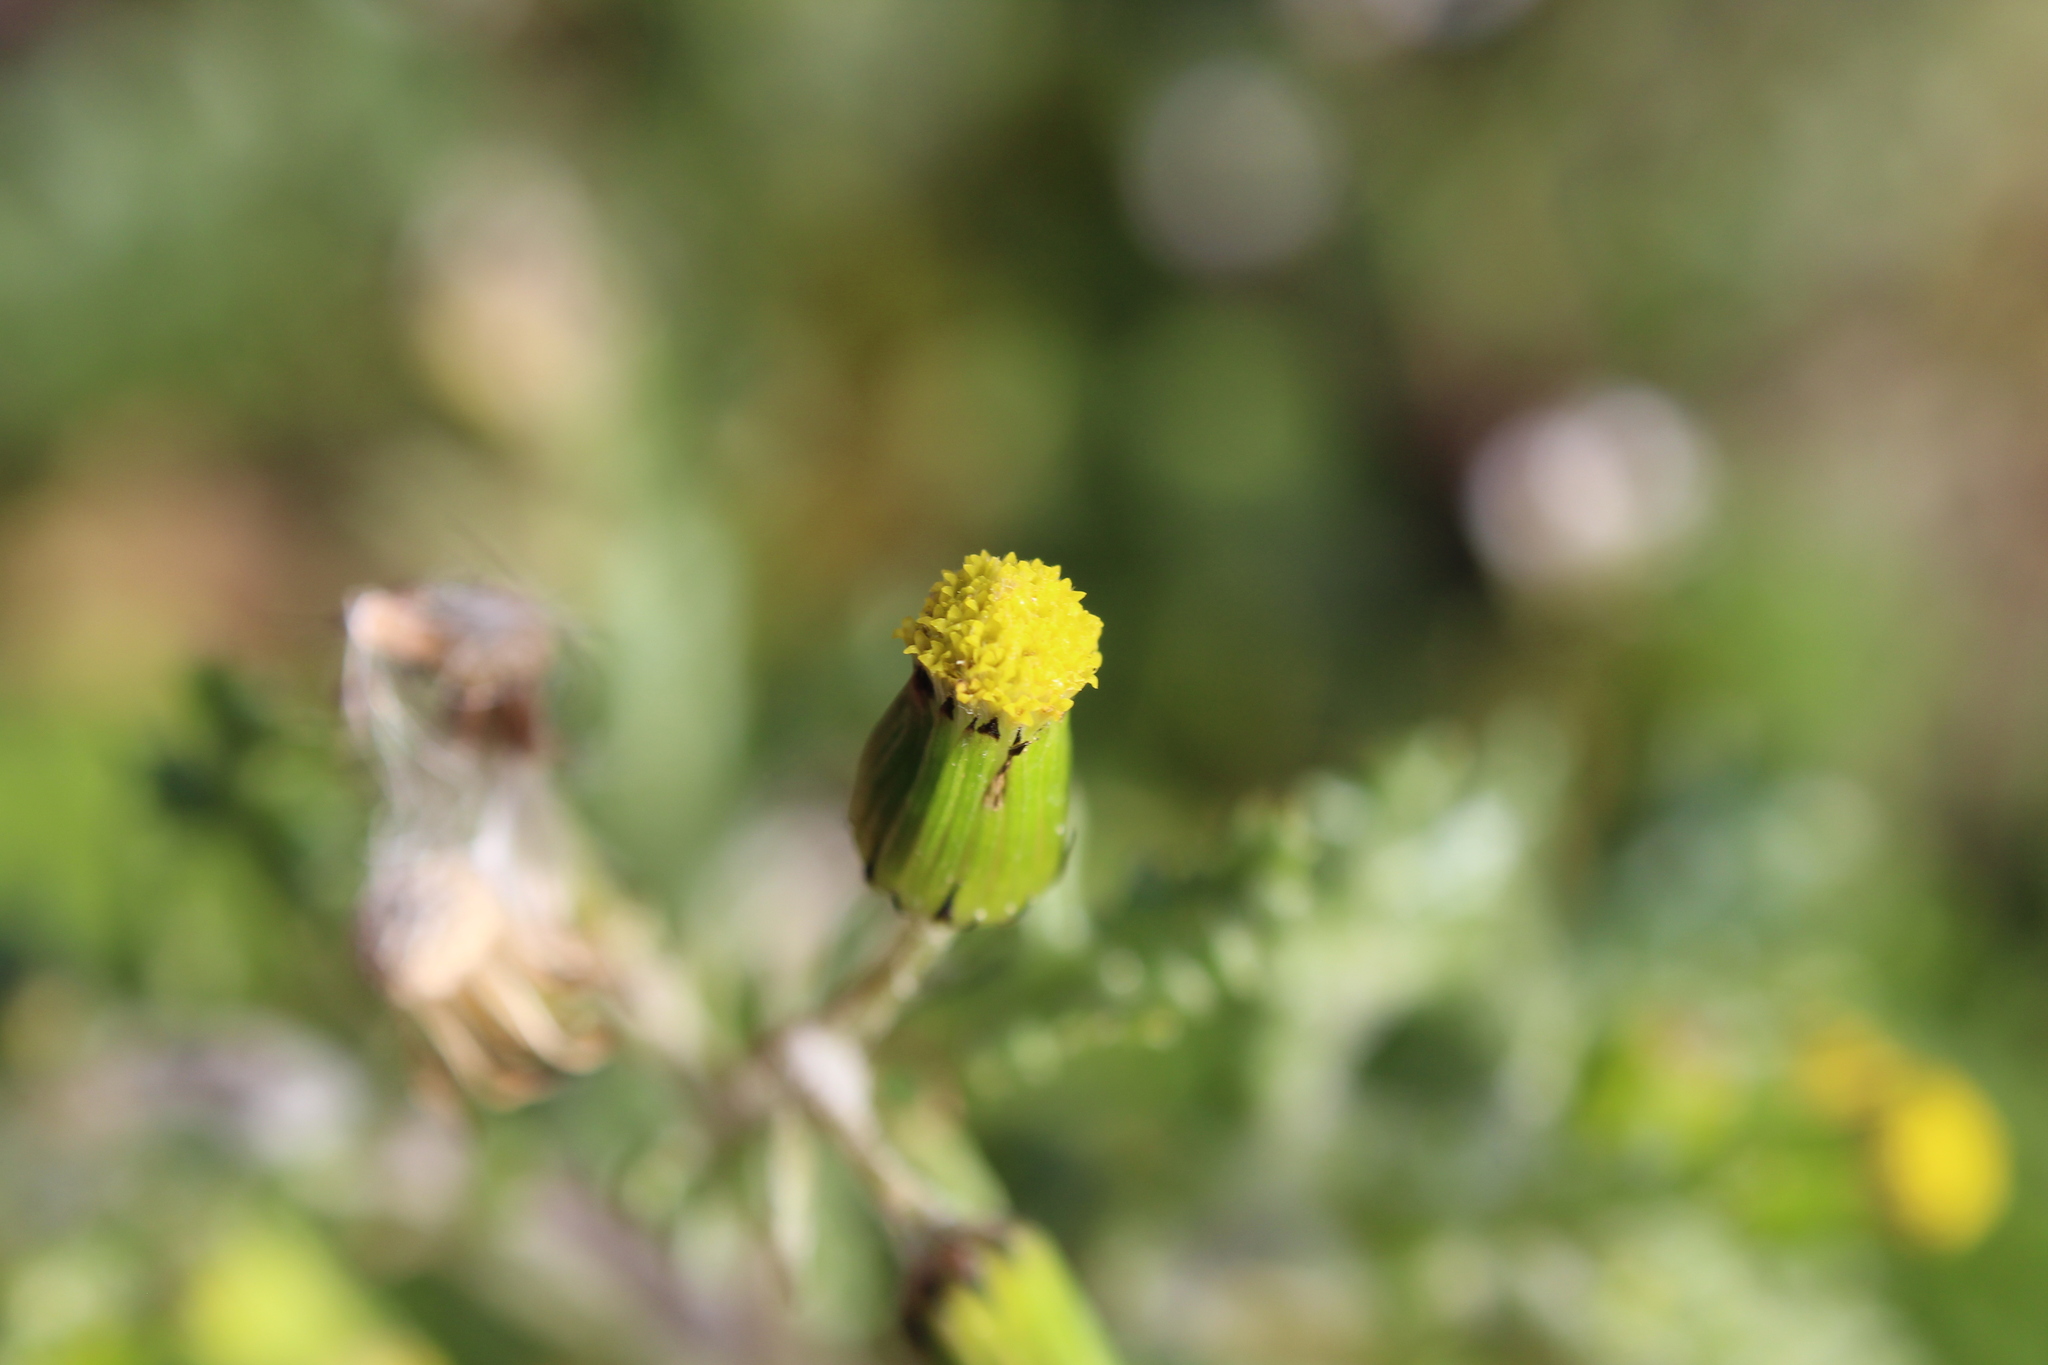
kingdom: Plantae
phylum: Tracheophyta
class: Magnoliopsida
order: Asterales
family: Asteraceae
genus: Senecio
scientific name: Senecio vulgaris
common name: Old-man-in-the-spring
